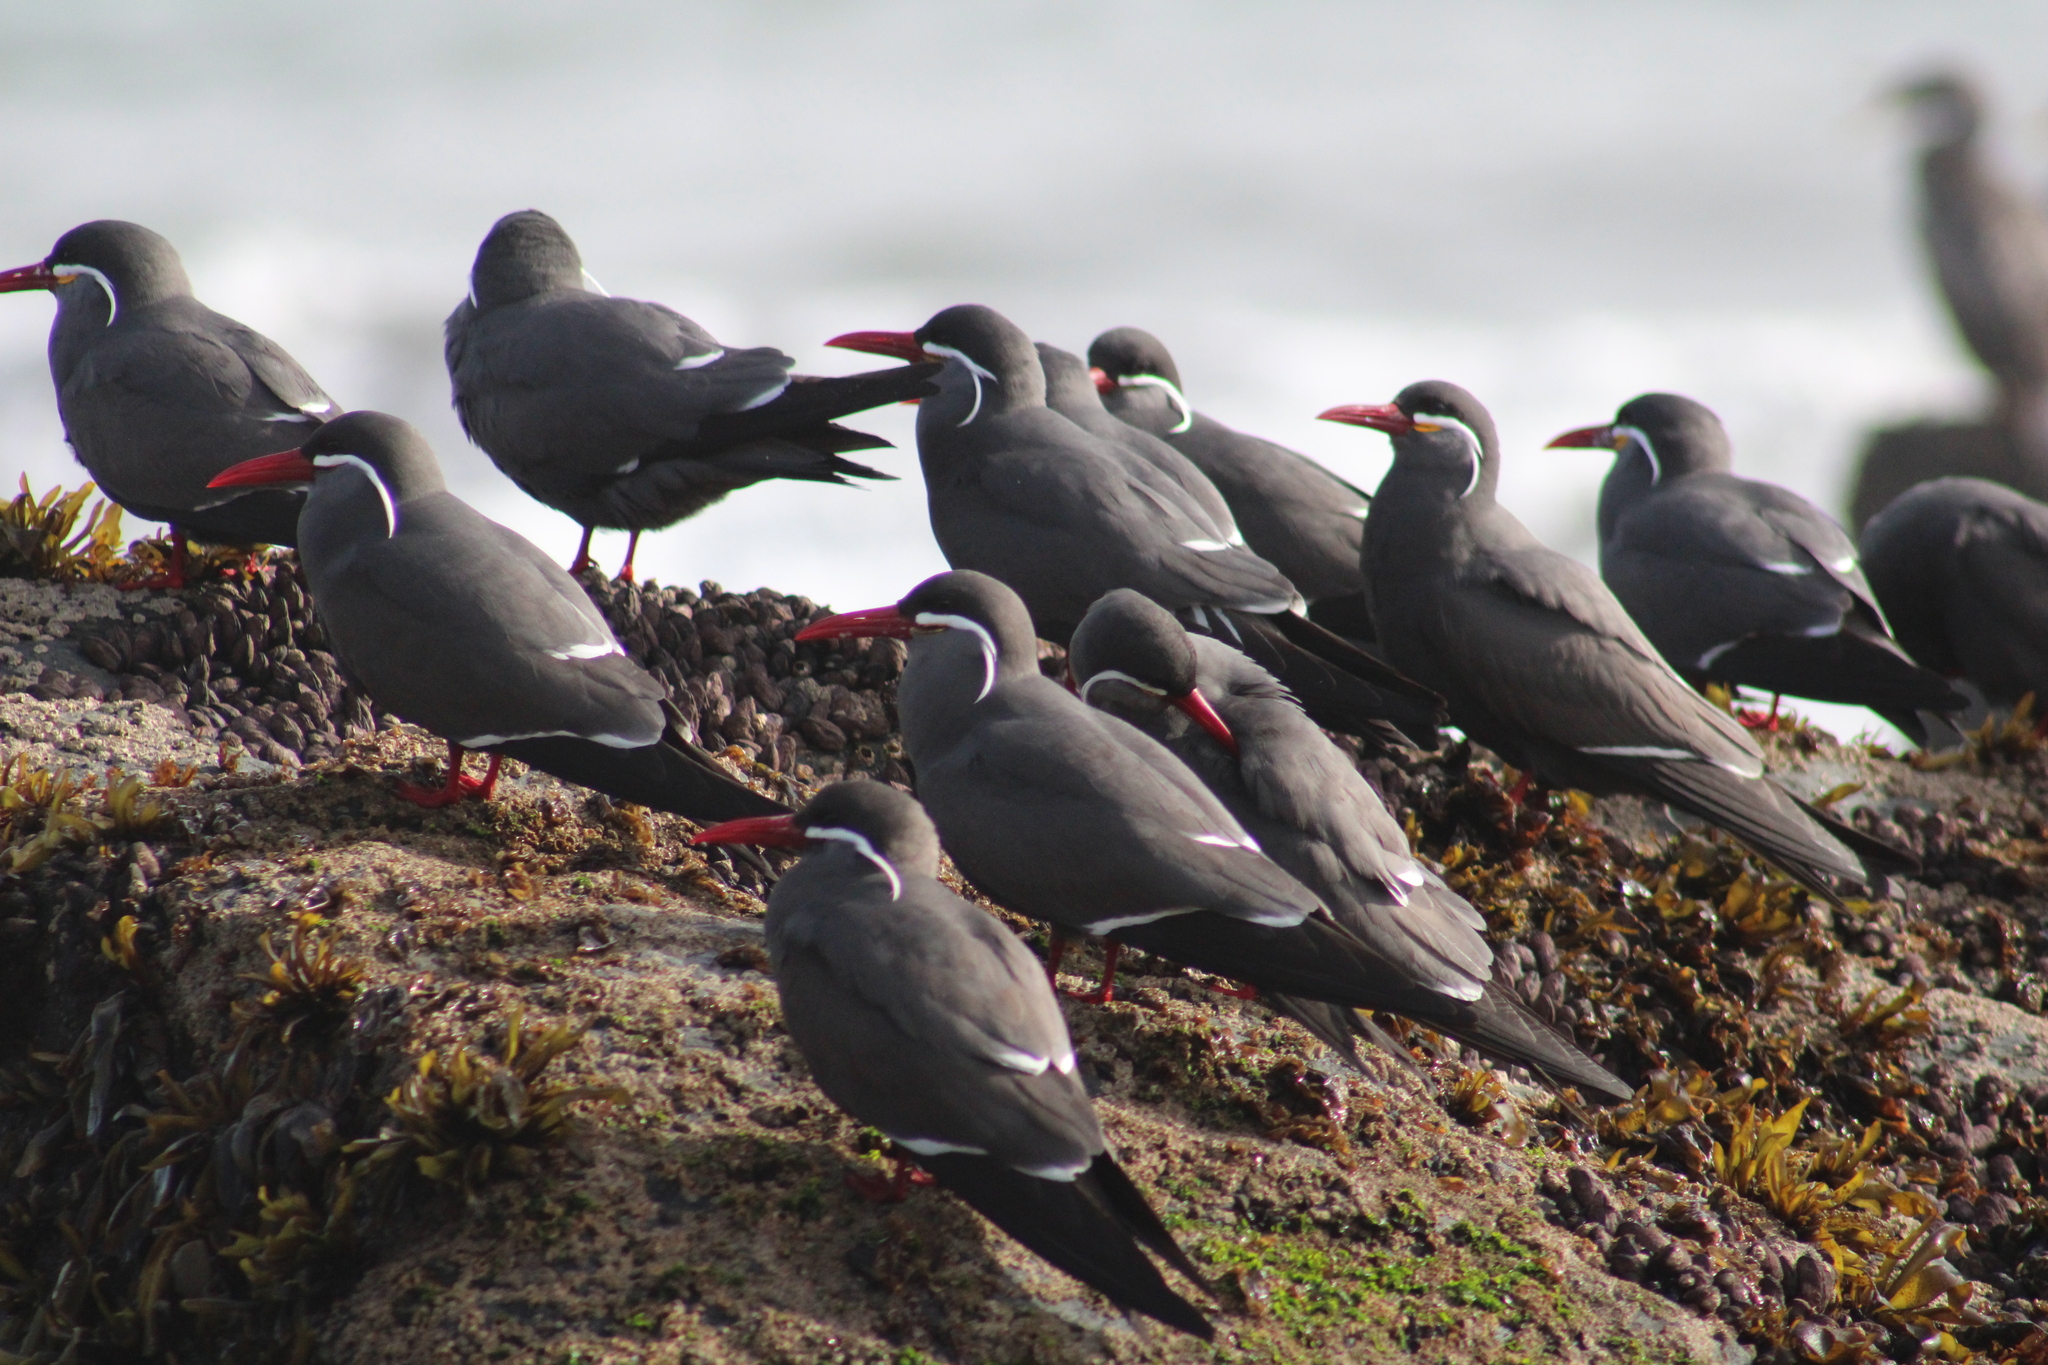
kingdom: Animalia
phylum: Chordata
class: Aves
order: Charadriiformes
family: Laridae
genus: Larosterna
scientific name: Larosterna inca
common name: Inca tern
